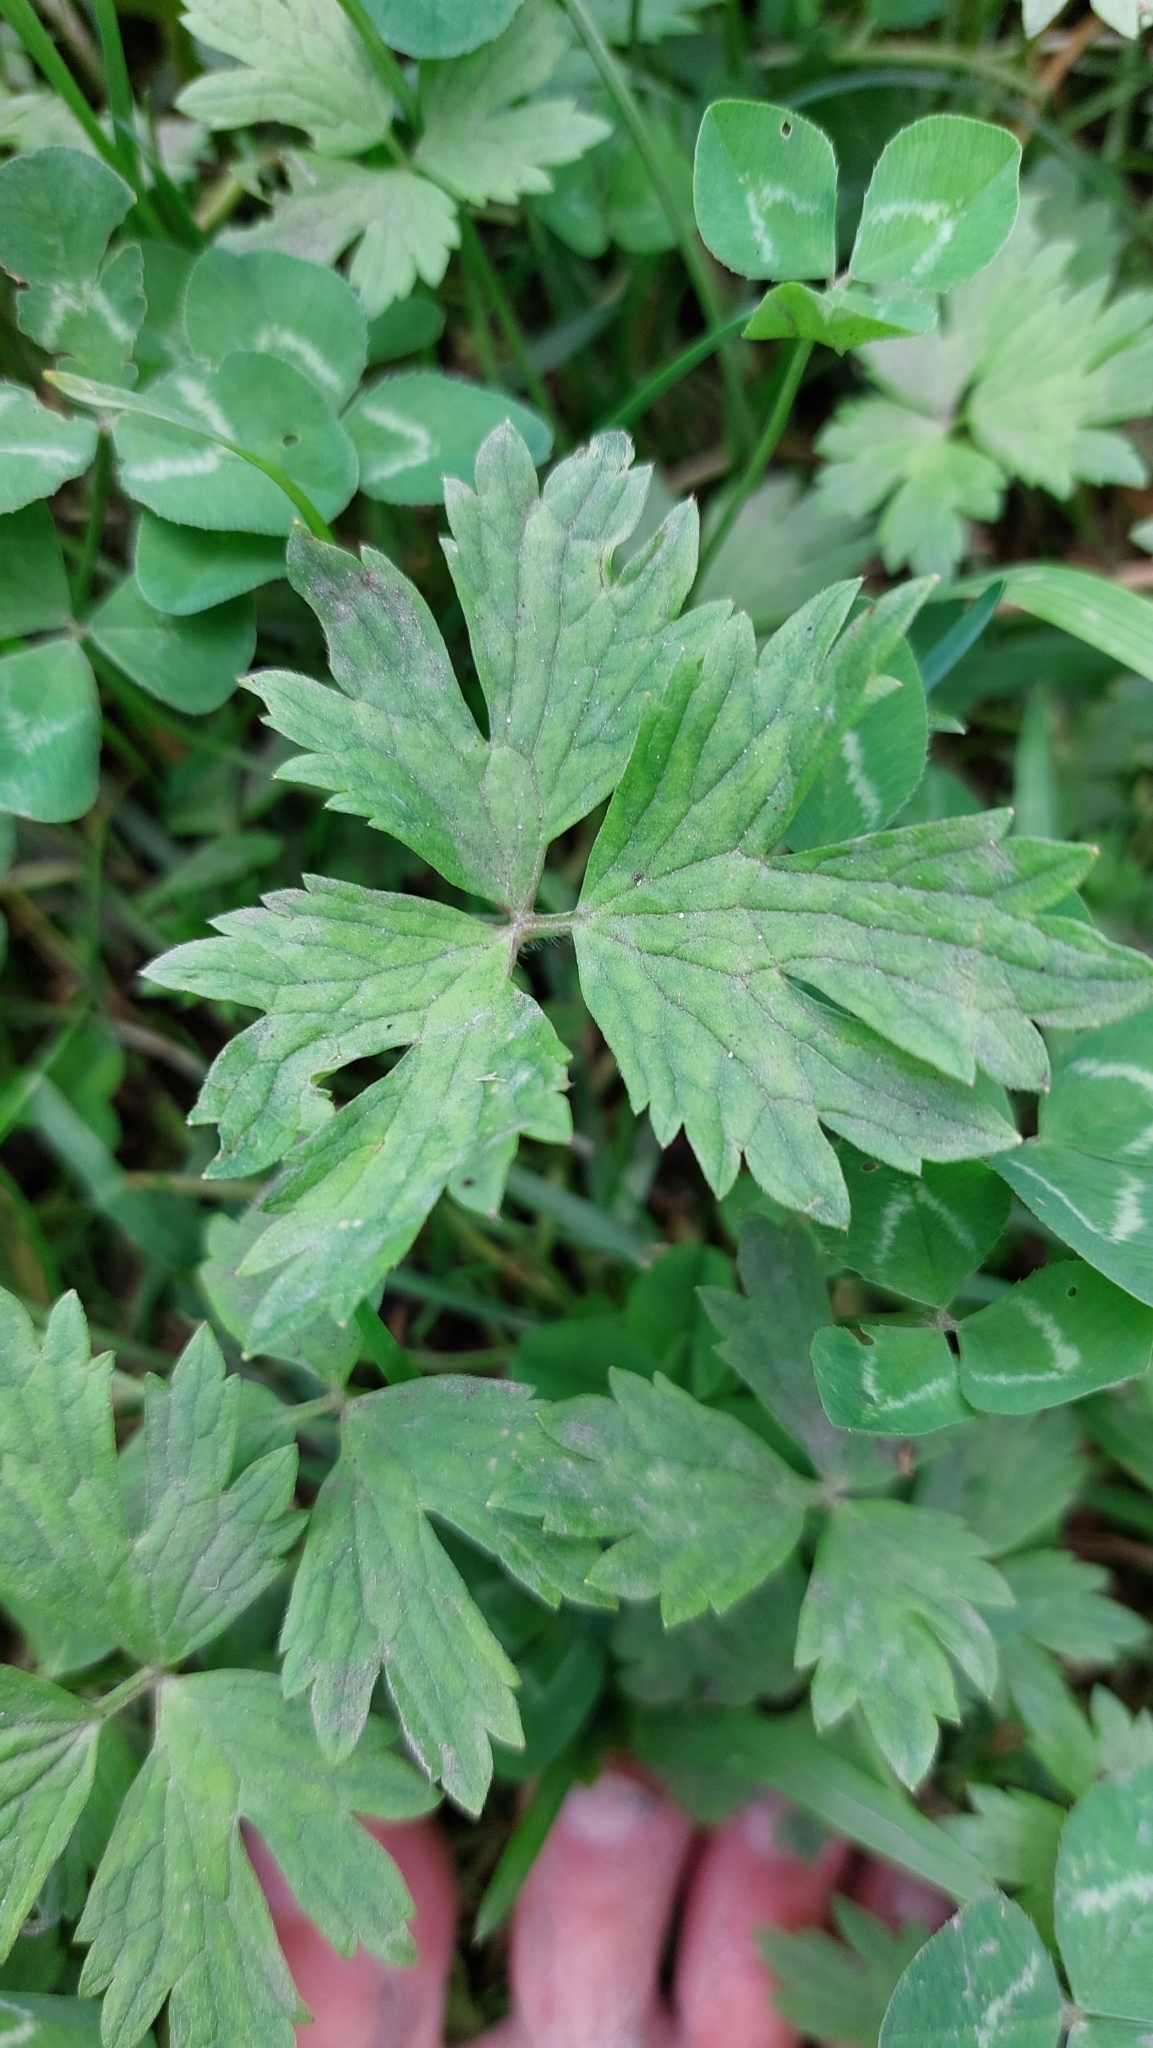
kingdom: Plantae
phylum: Tracheophyta
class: Magnoliopsida
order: Ranunculales
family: Ranunculaceae
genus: Ranunculus
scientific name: Ranunculus repens
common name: Creeping buttercup
